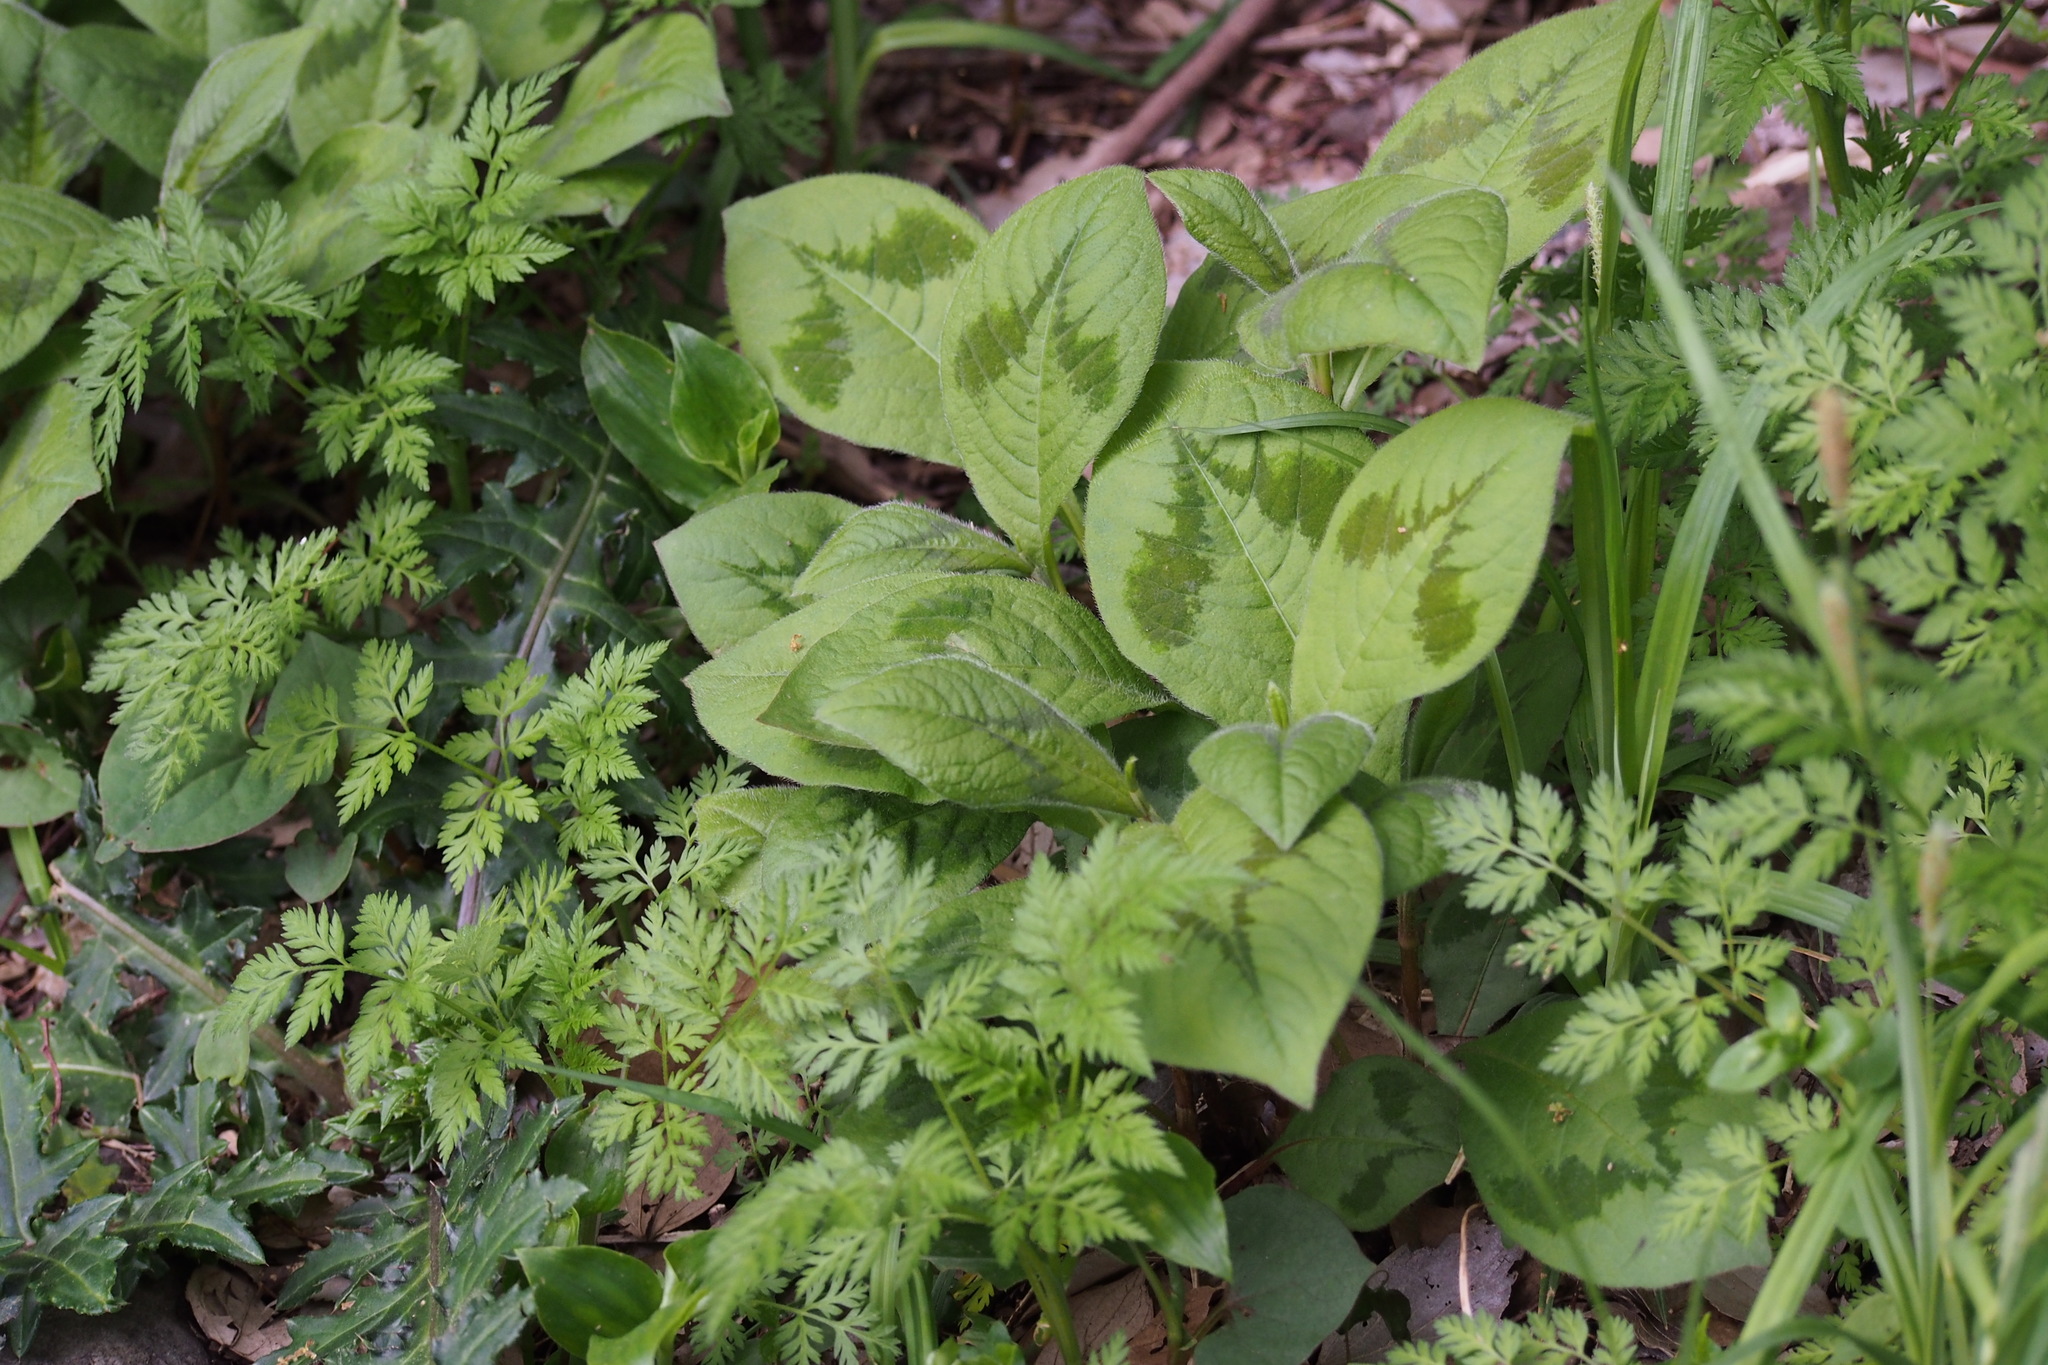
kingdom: Plantae
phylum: Tracheophyta
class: Magnoliopsida
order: Caryophyllales
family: Polygonaceae
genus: Persicaria
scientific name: Persicaria filiformis
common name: Asian jumpseed
